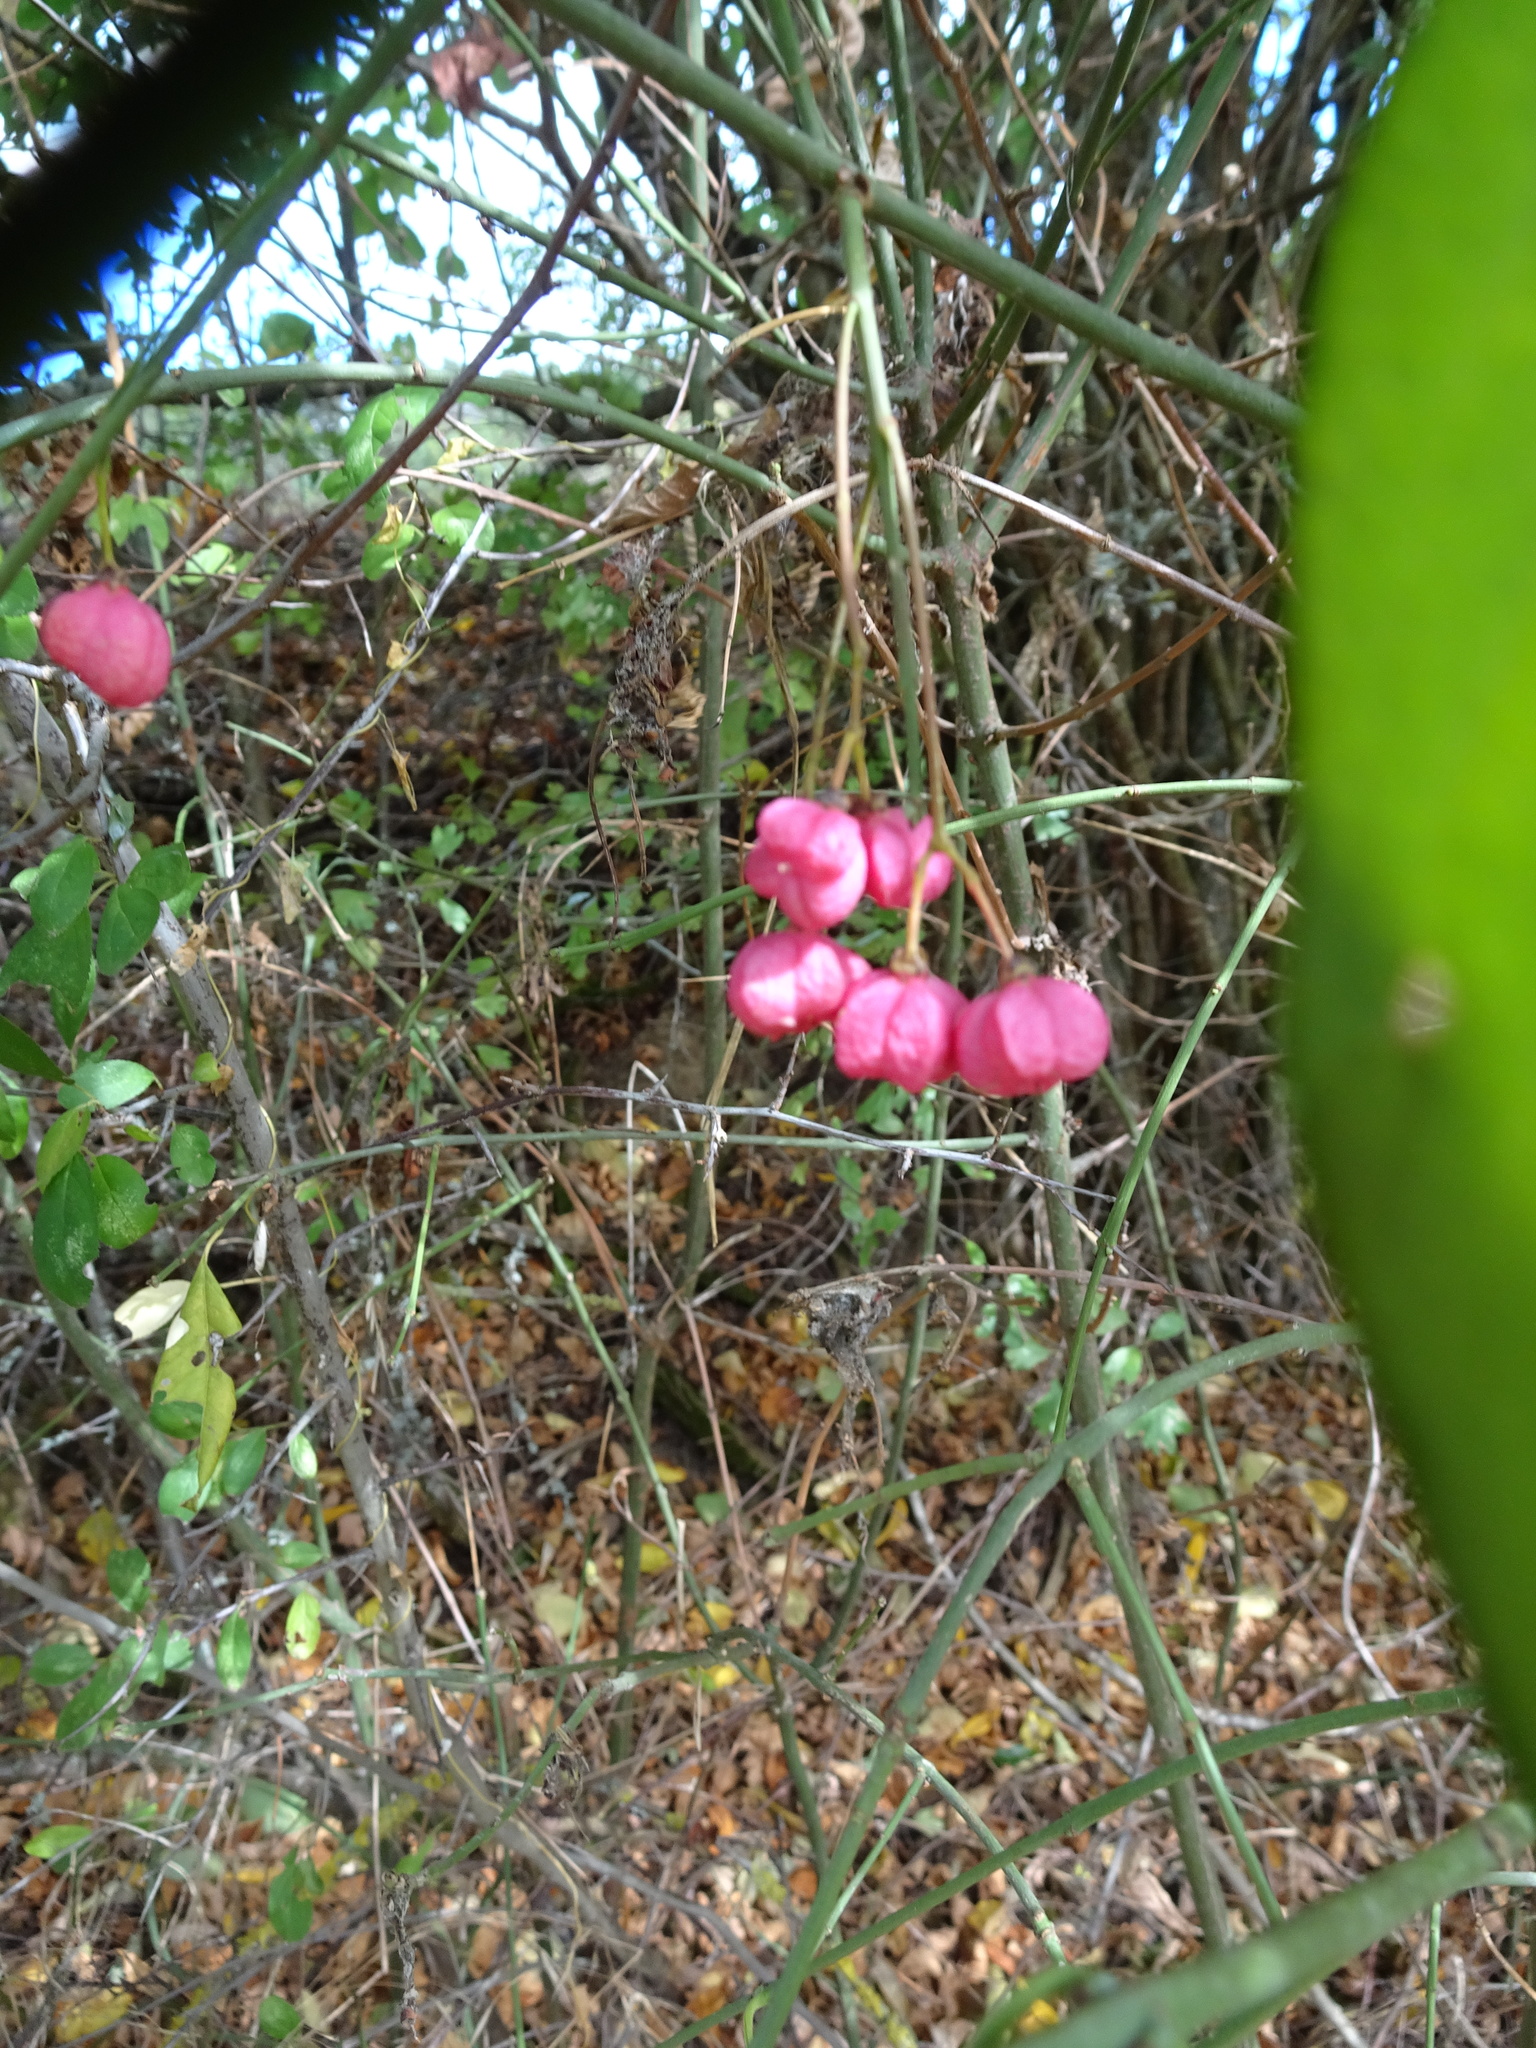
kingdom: Plantae
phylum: Tracheophyta
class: Magnoliopsida
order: Celastrales
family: Celastraceae
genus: Euonymus
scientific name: Euonymus europaeus
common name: Spindle
